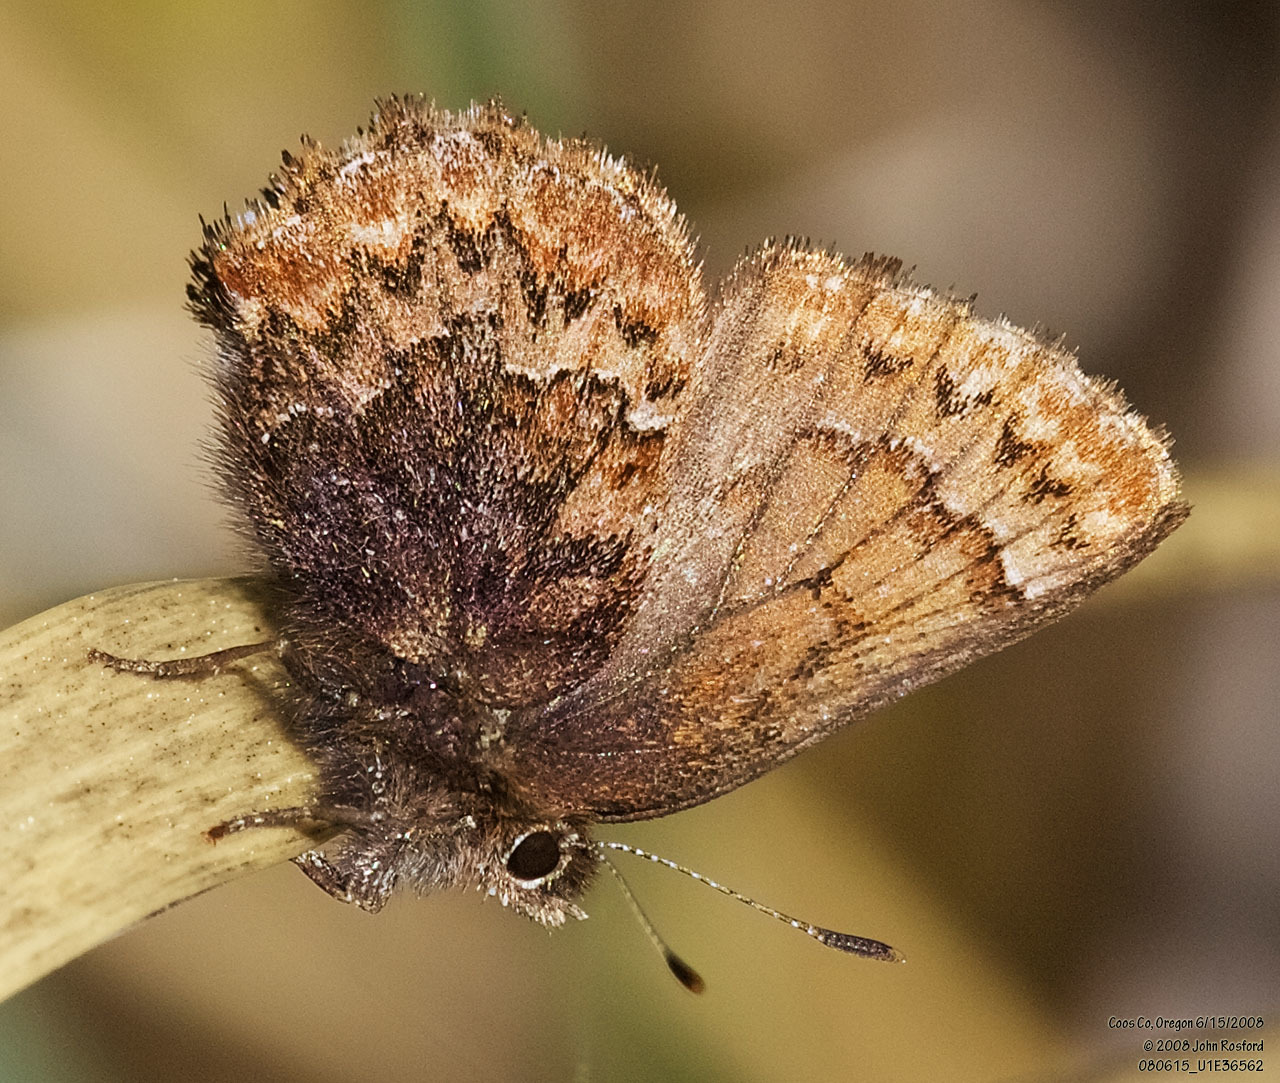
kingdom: Animalia
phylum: Arthropoda
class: Insecta
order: Lepidoptera
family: Lycaenidae
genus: Incisalia
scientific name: Incisalia eryphon
